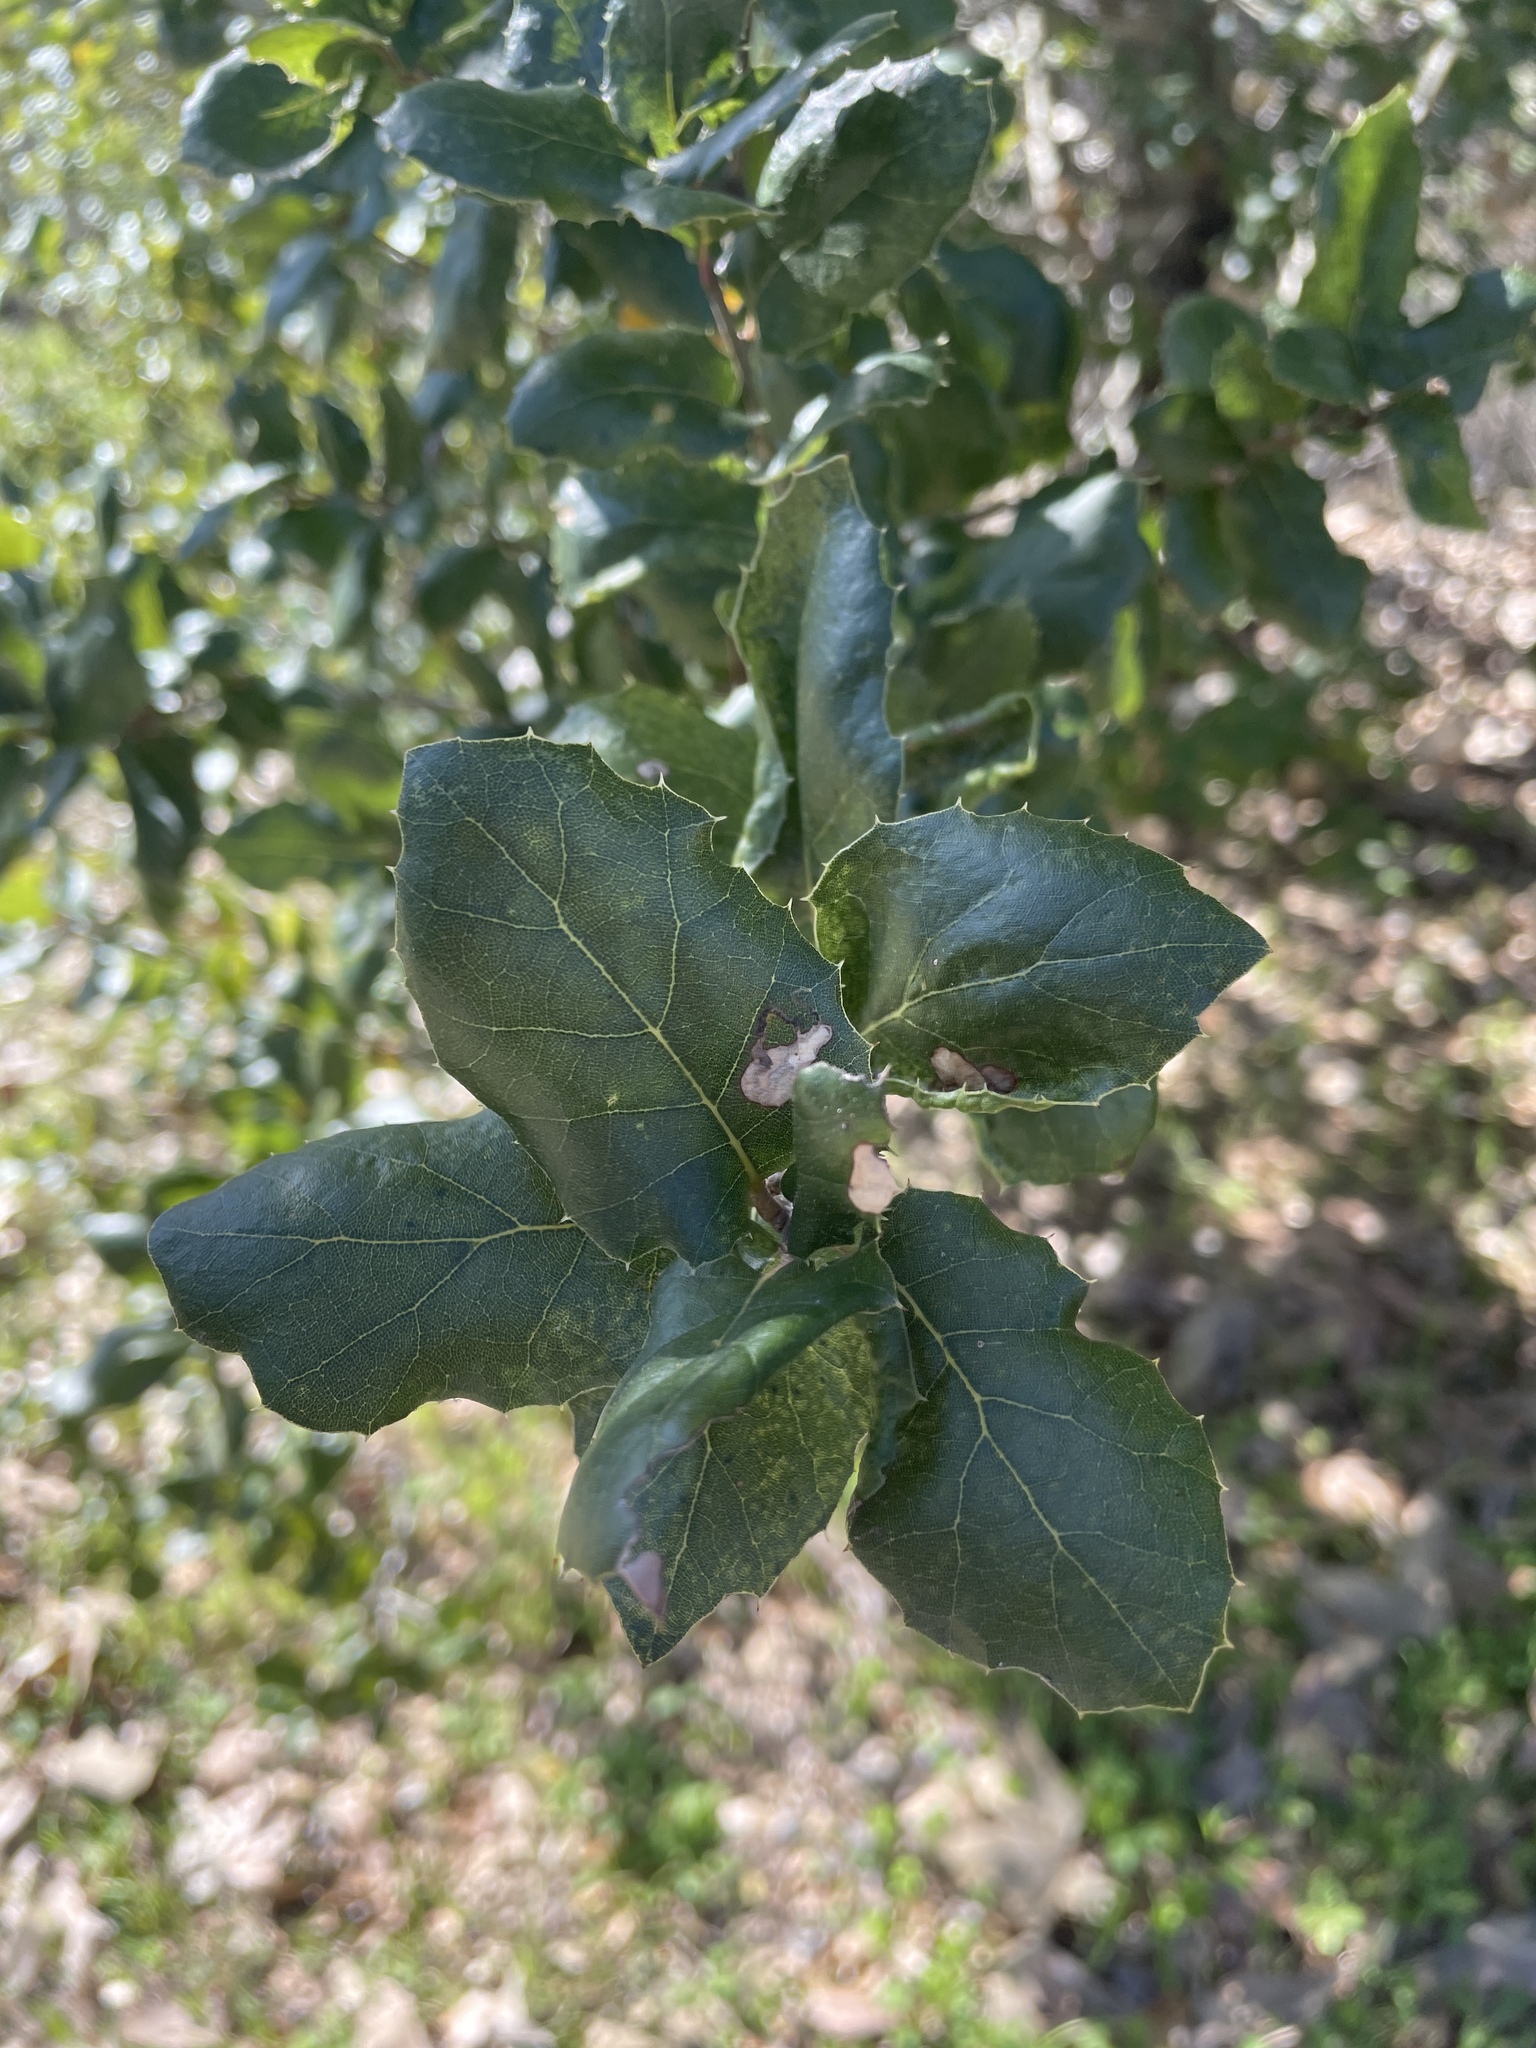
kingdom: Plantae
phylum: Tracheophyta
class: Magnoliopsida
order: Fagales
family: Fagaceae
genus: Quercus
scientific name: Quercus agrifolia
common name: California live oak
